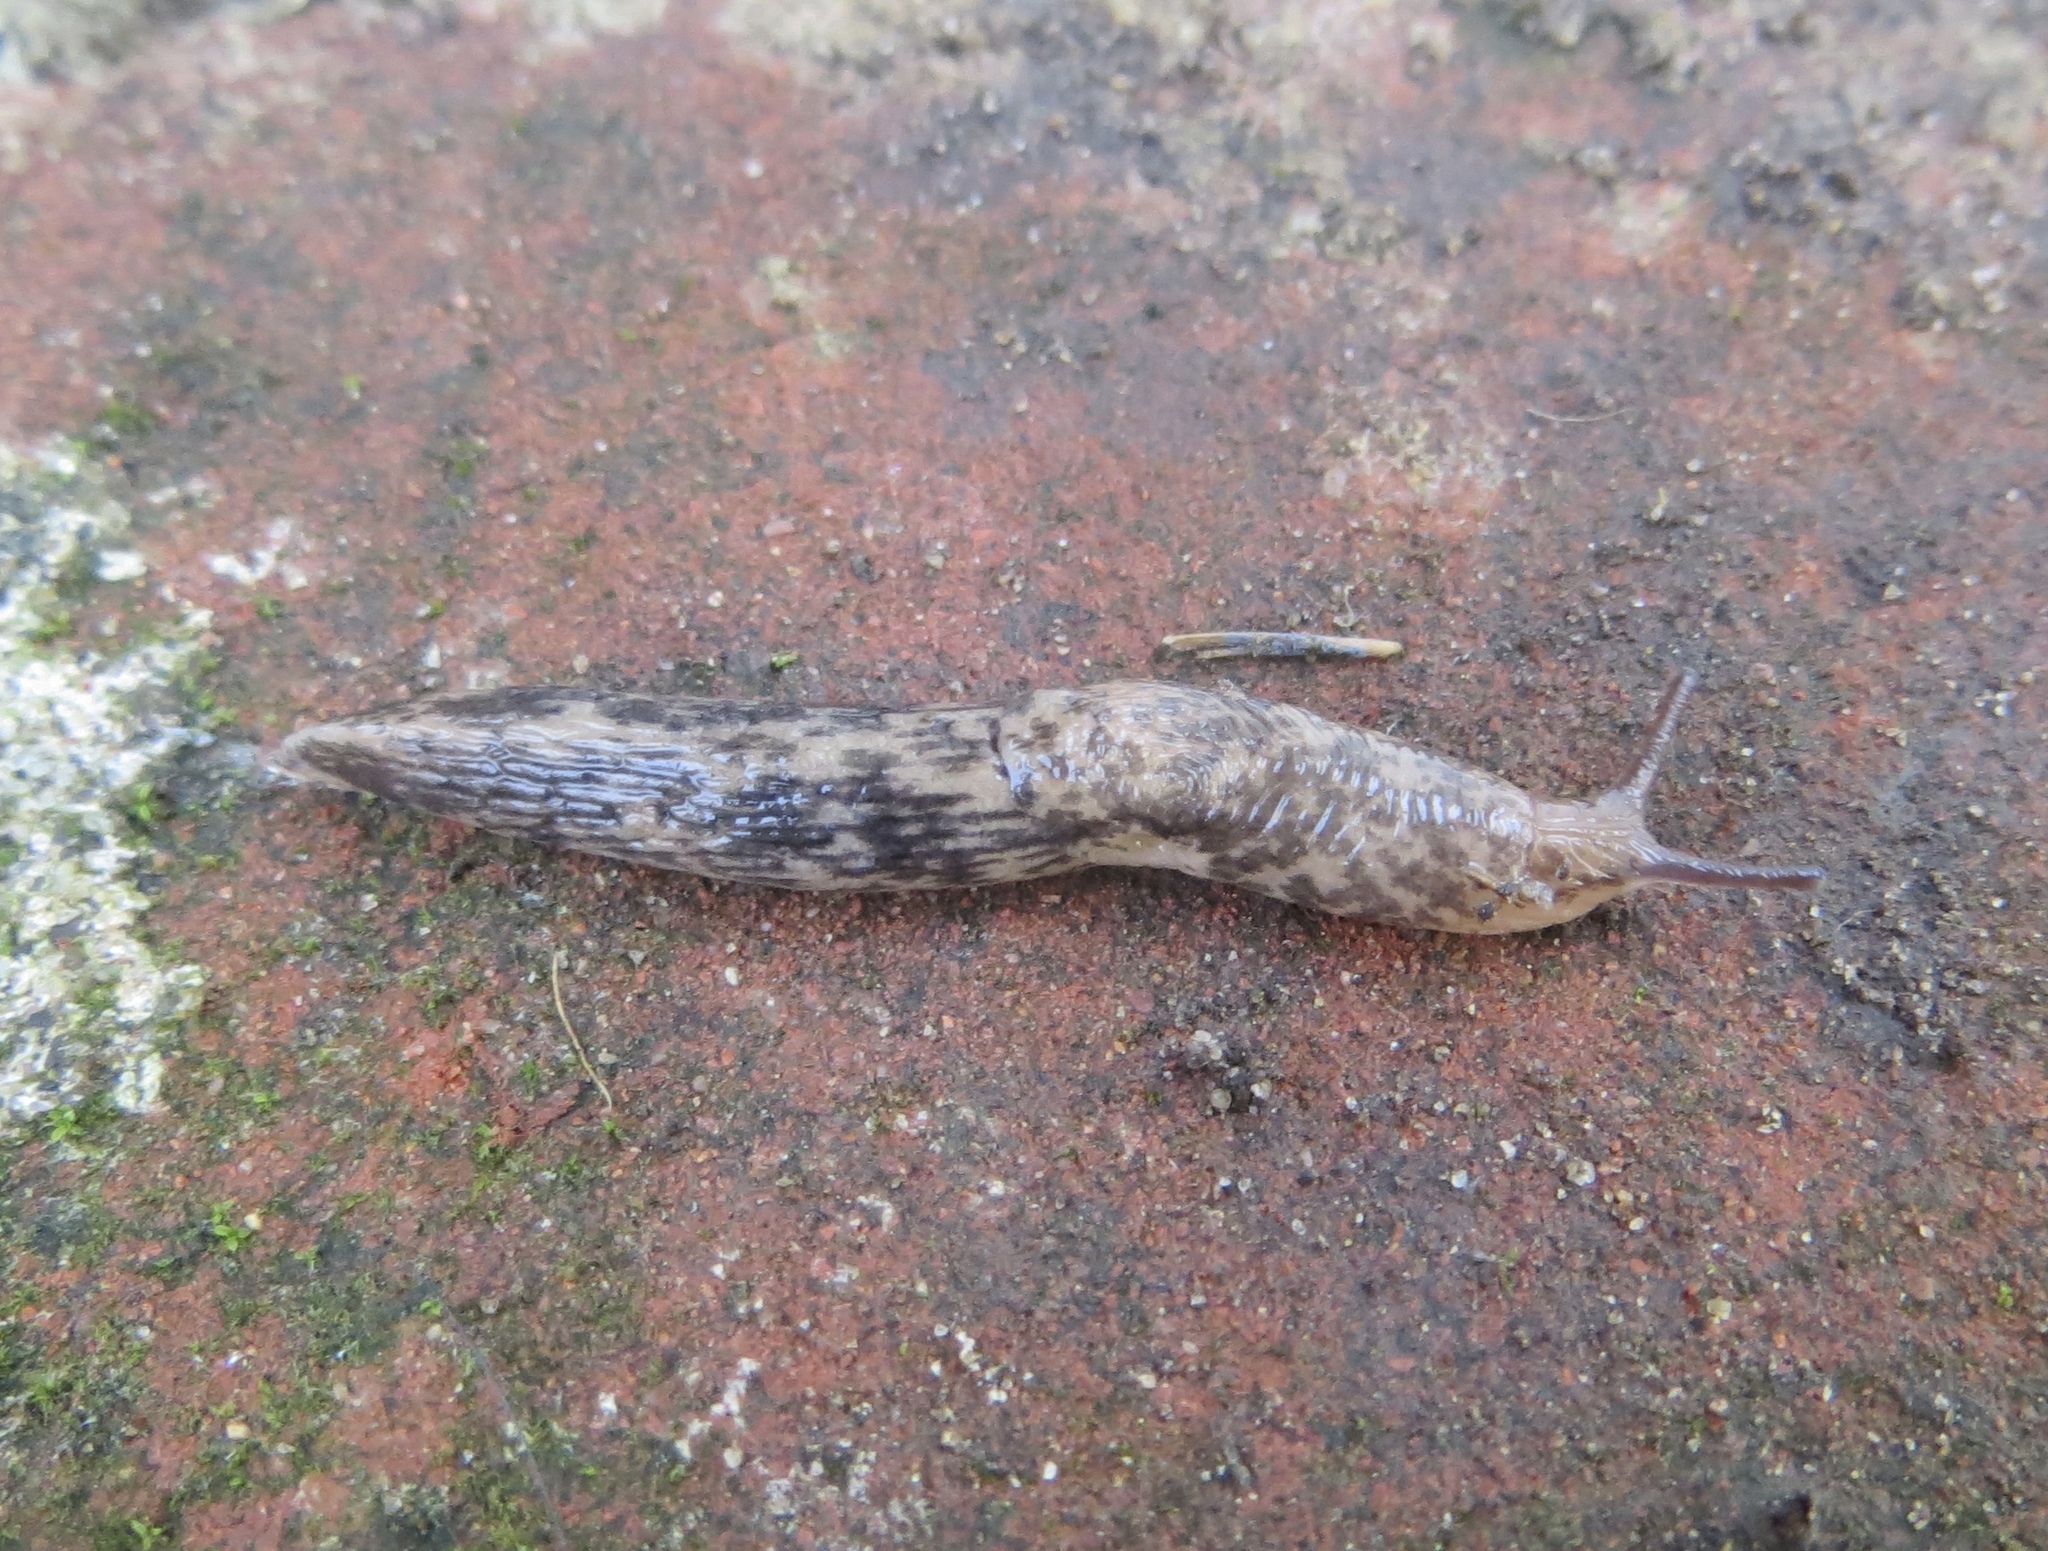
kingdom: Animalia
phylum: Mollusca
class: Gastropoda
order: Stylommatophora
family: Agriolimacidae
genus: Deroceras
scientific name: Deroceras reticulatum
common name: Gray field slug
